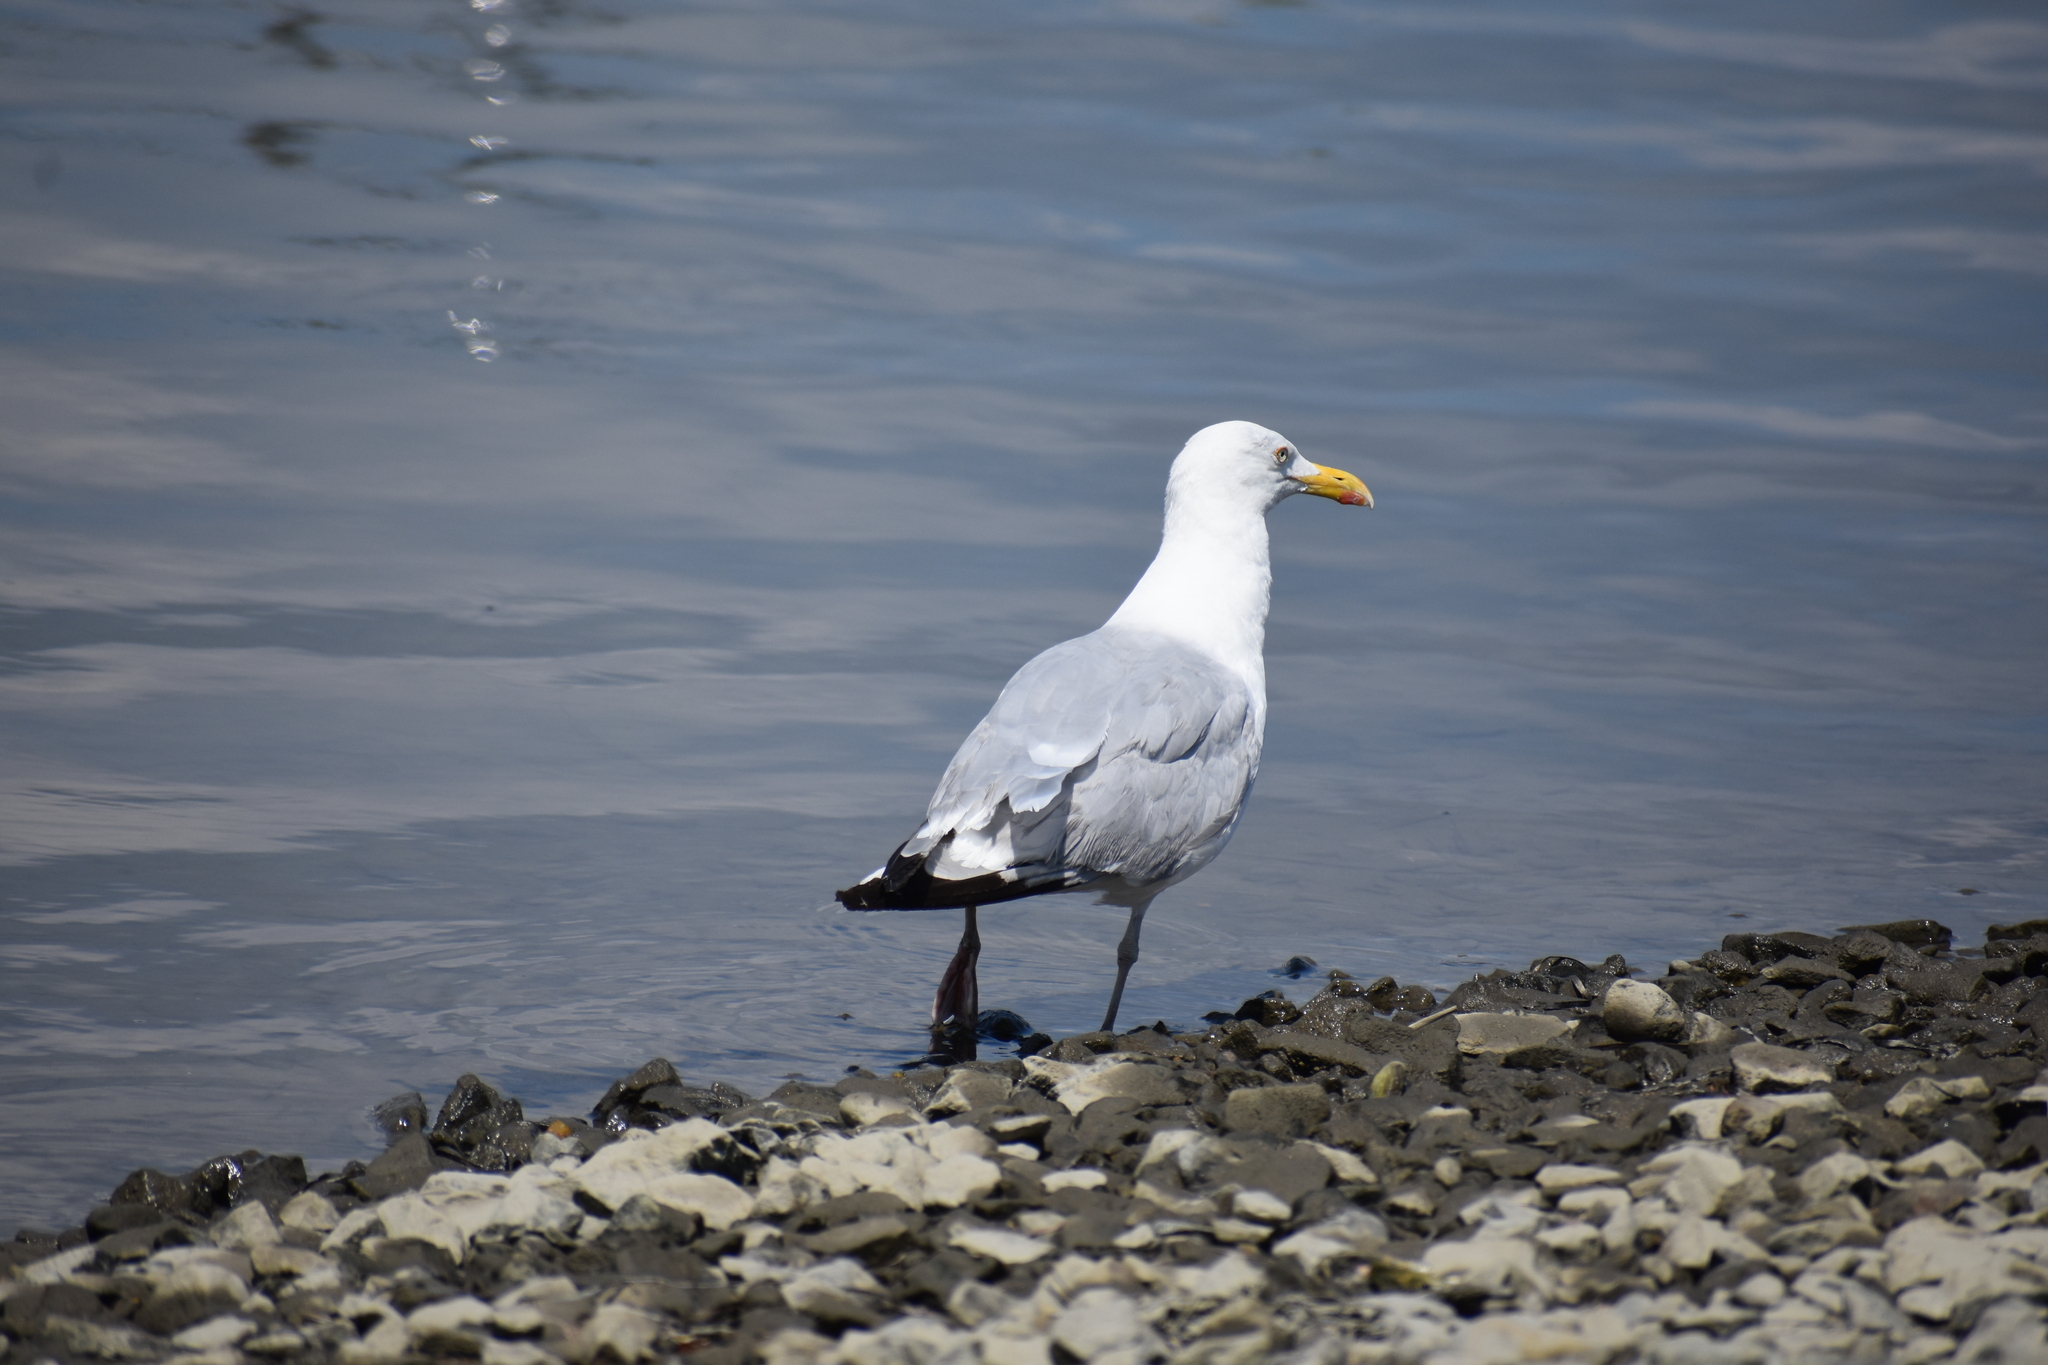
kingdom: Animalia
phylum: Chordata
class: Aves
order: Charadriiformes
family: Laridae
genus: Larus
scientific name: Larus argentatus
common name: Herring gull
